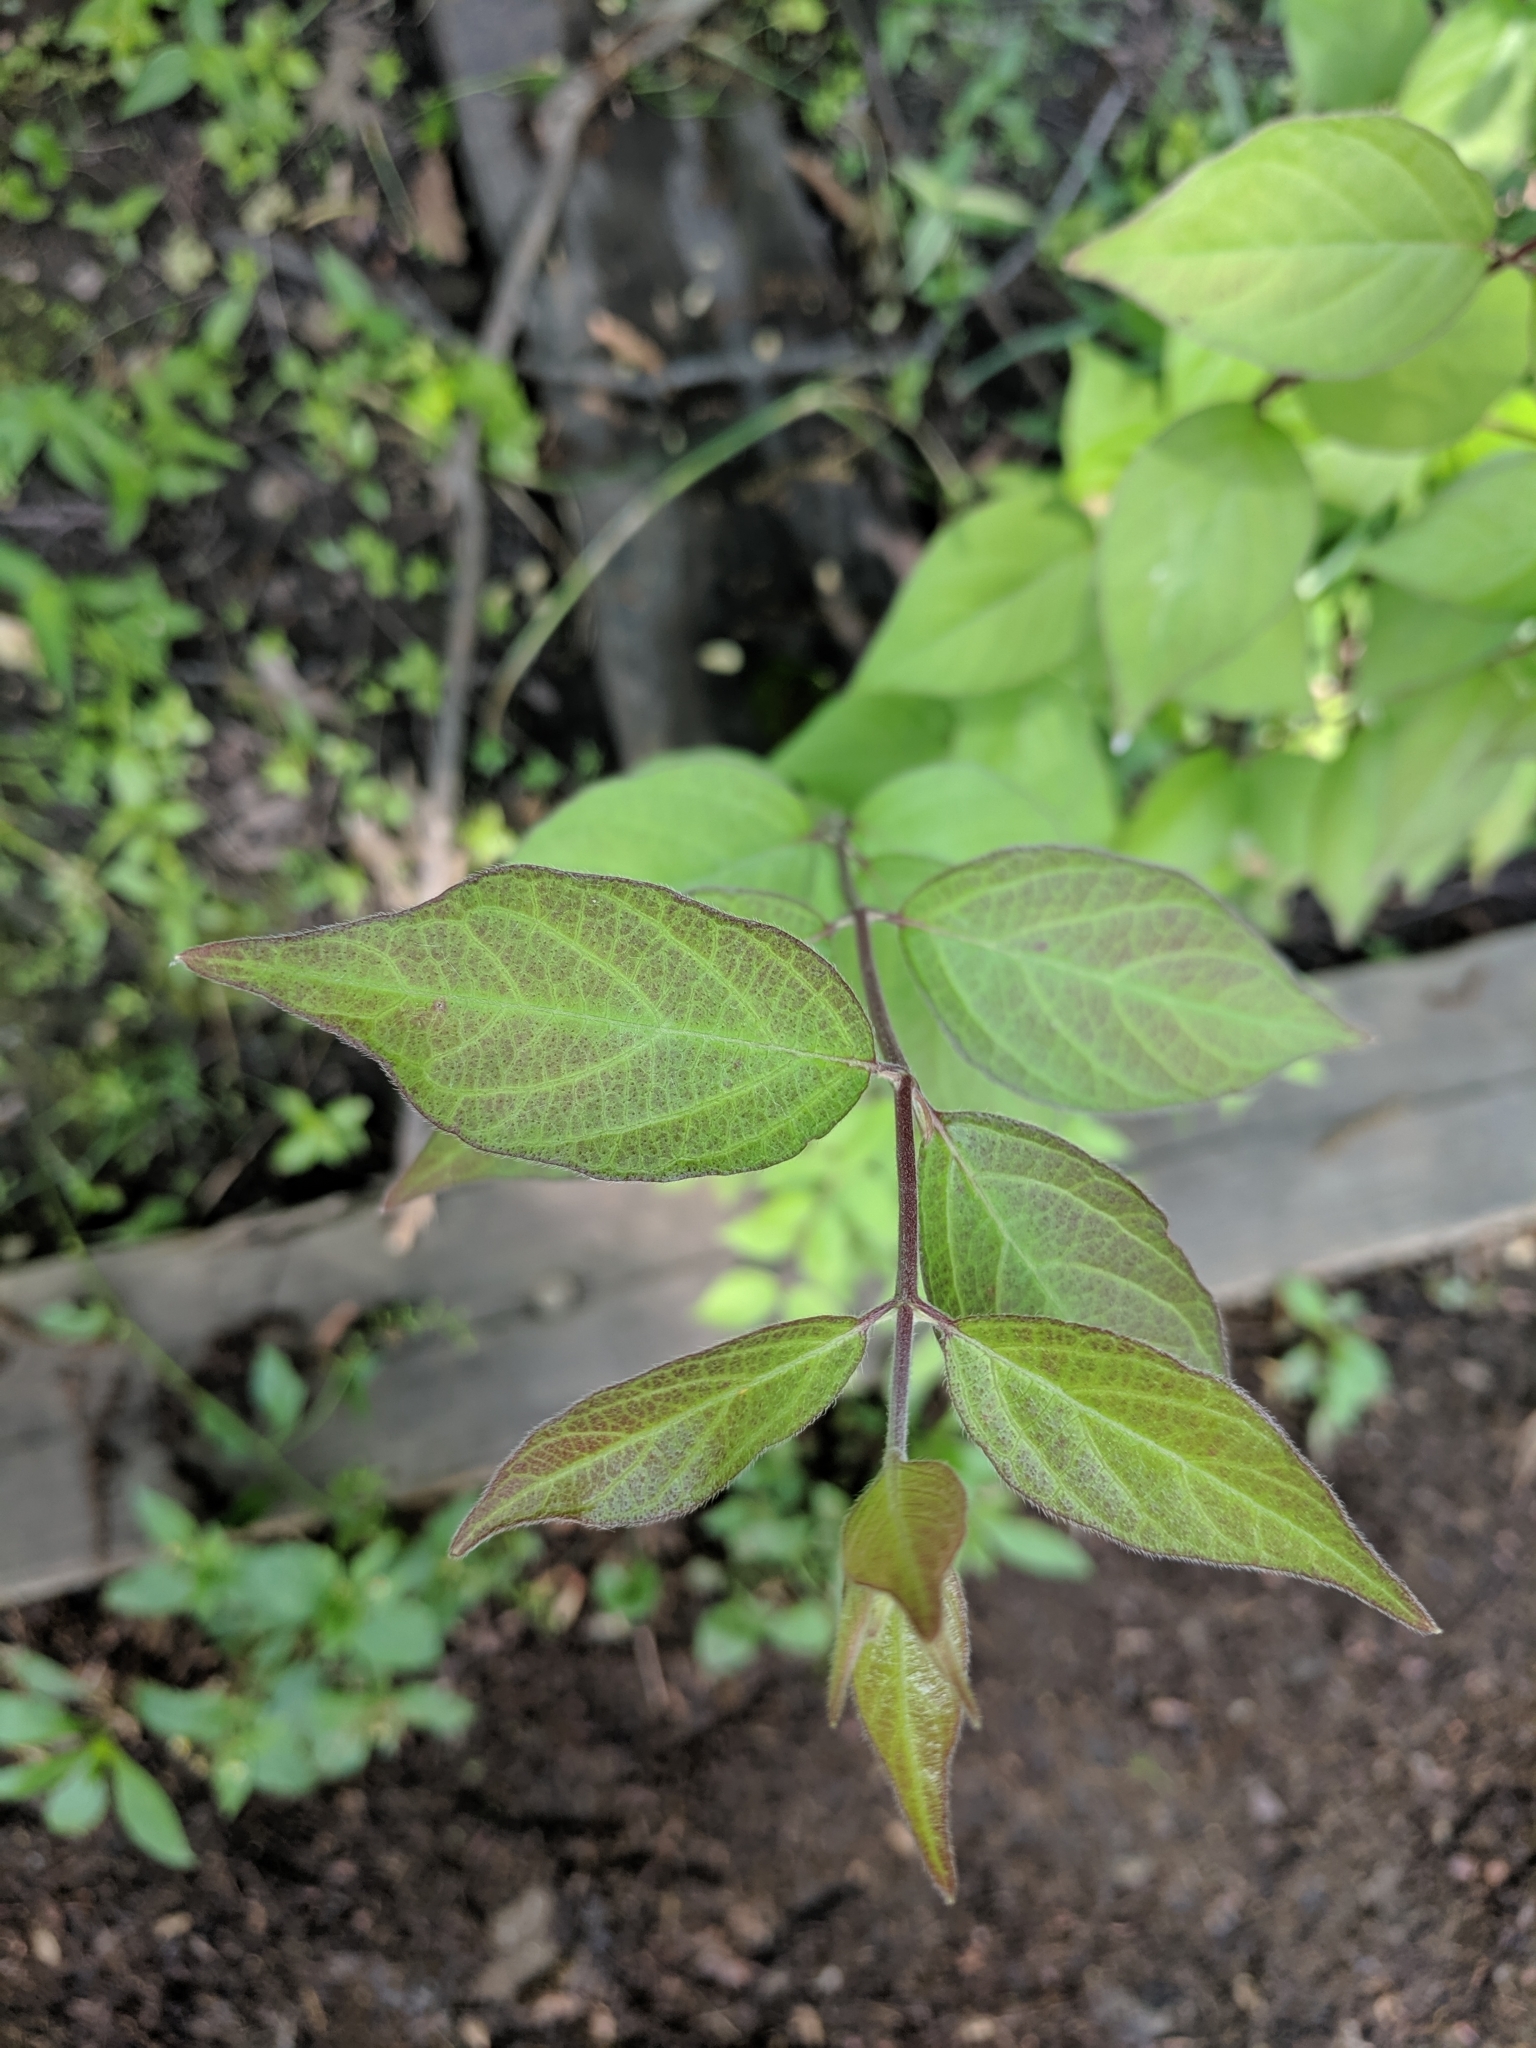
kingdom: Plantae
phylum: Tracheophyta
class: Magnoliopsida
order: Dipsacales
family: Caprifoliaceae
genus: Lonicera
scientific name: Lonicera maackii
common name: Amur honeysuckle
